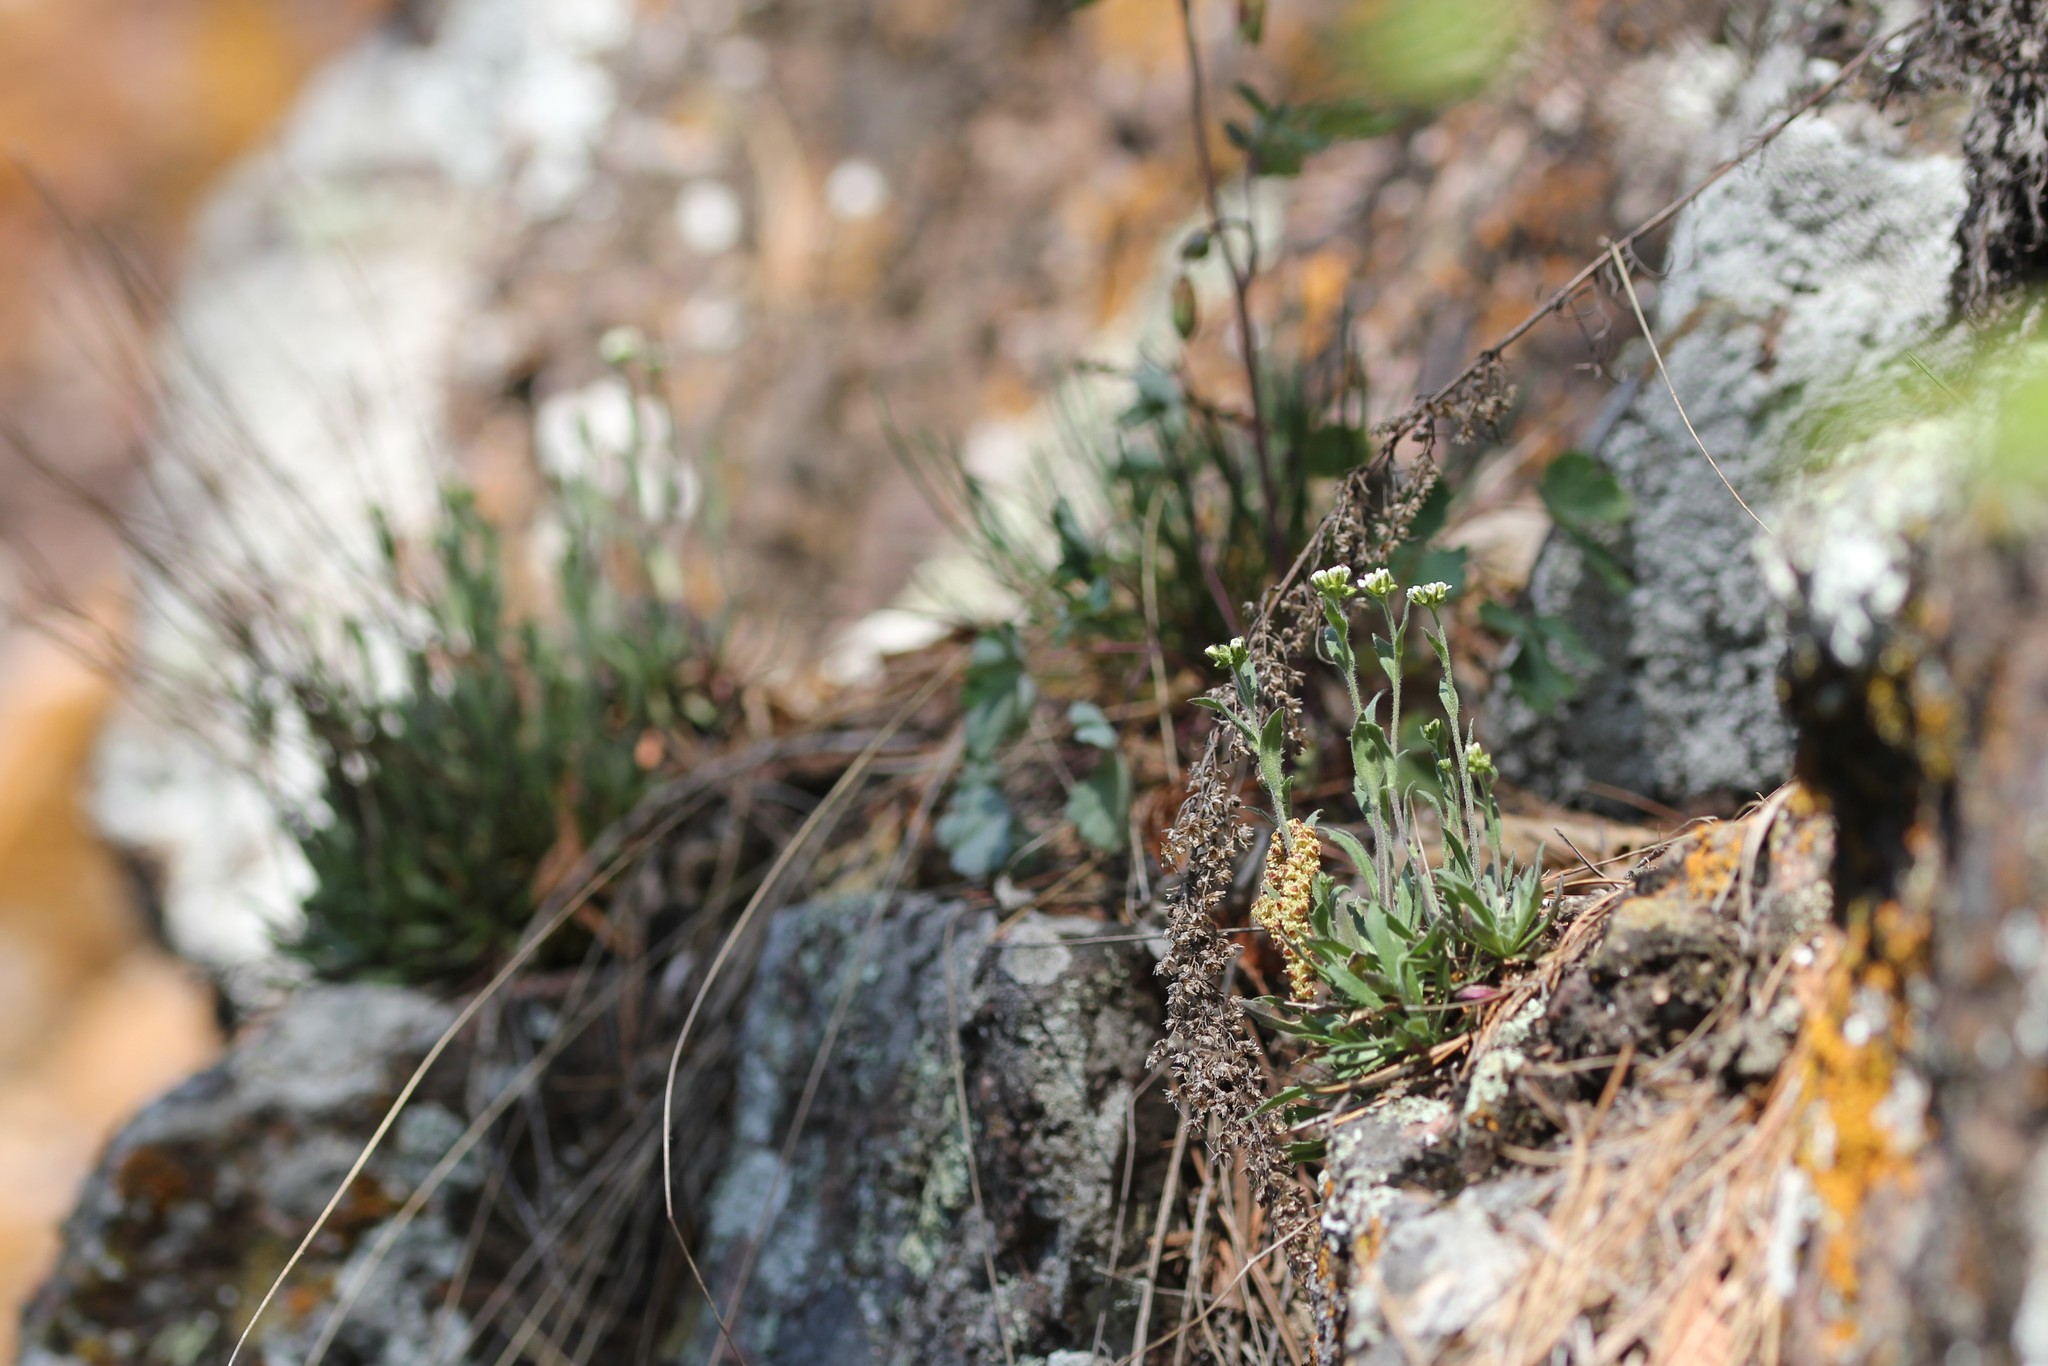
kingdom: Plantae
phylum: Tracheophyta
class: Magnoliopsida
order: Brassicales
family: Brassicaceae
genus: Draba
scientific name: Draba glabella
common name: Glaucous draba
